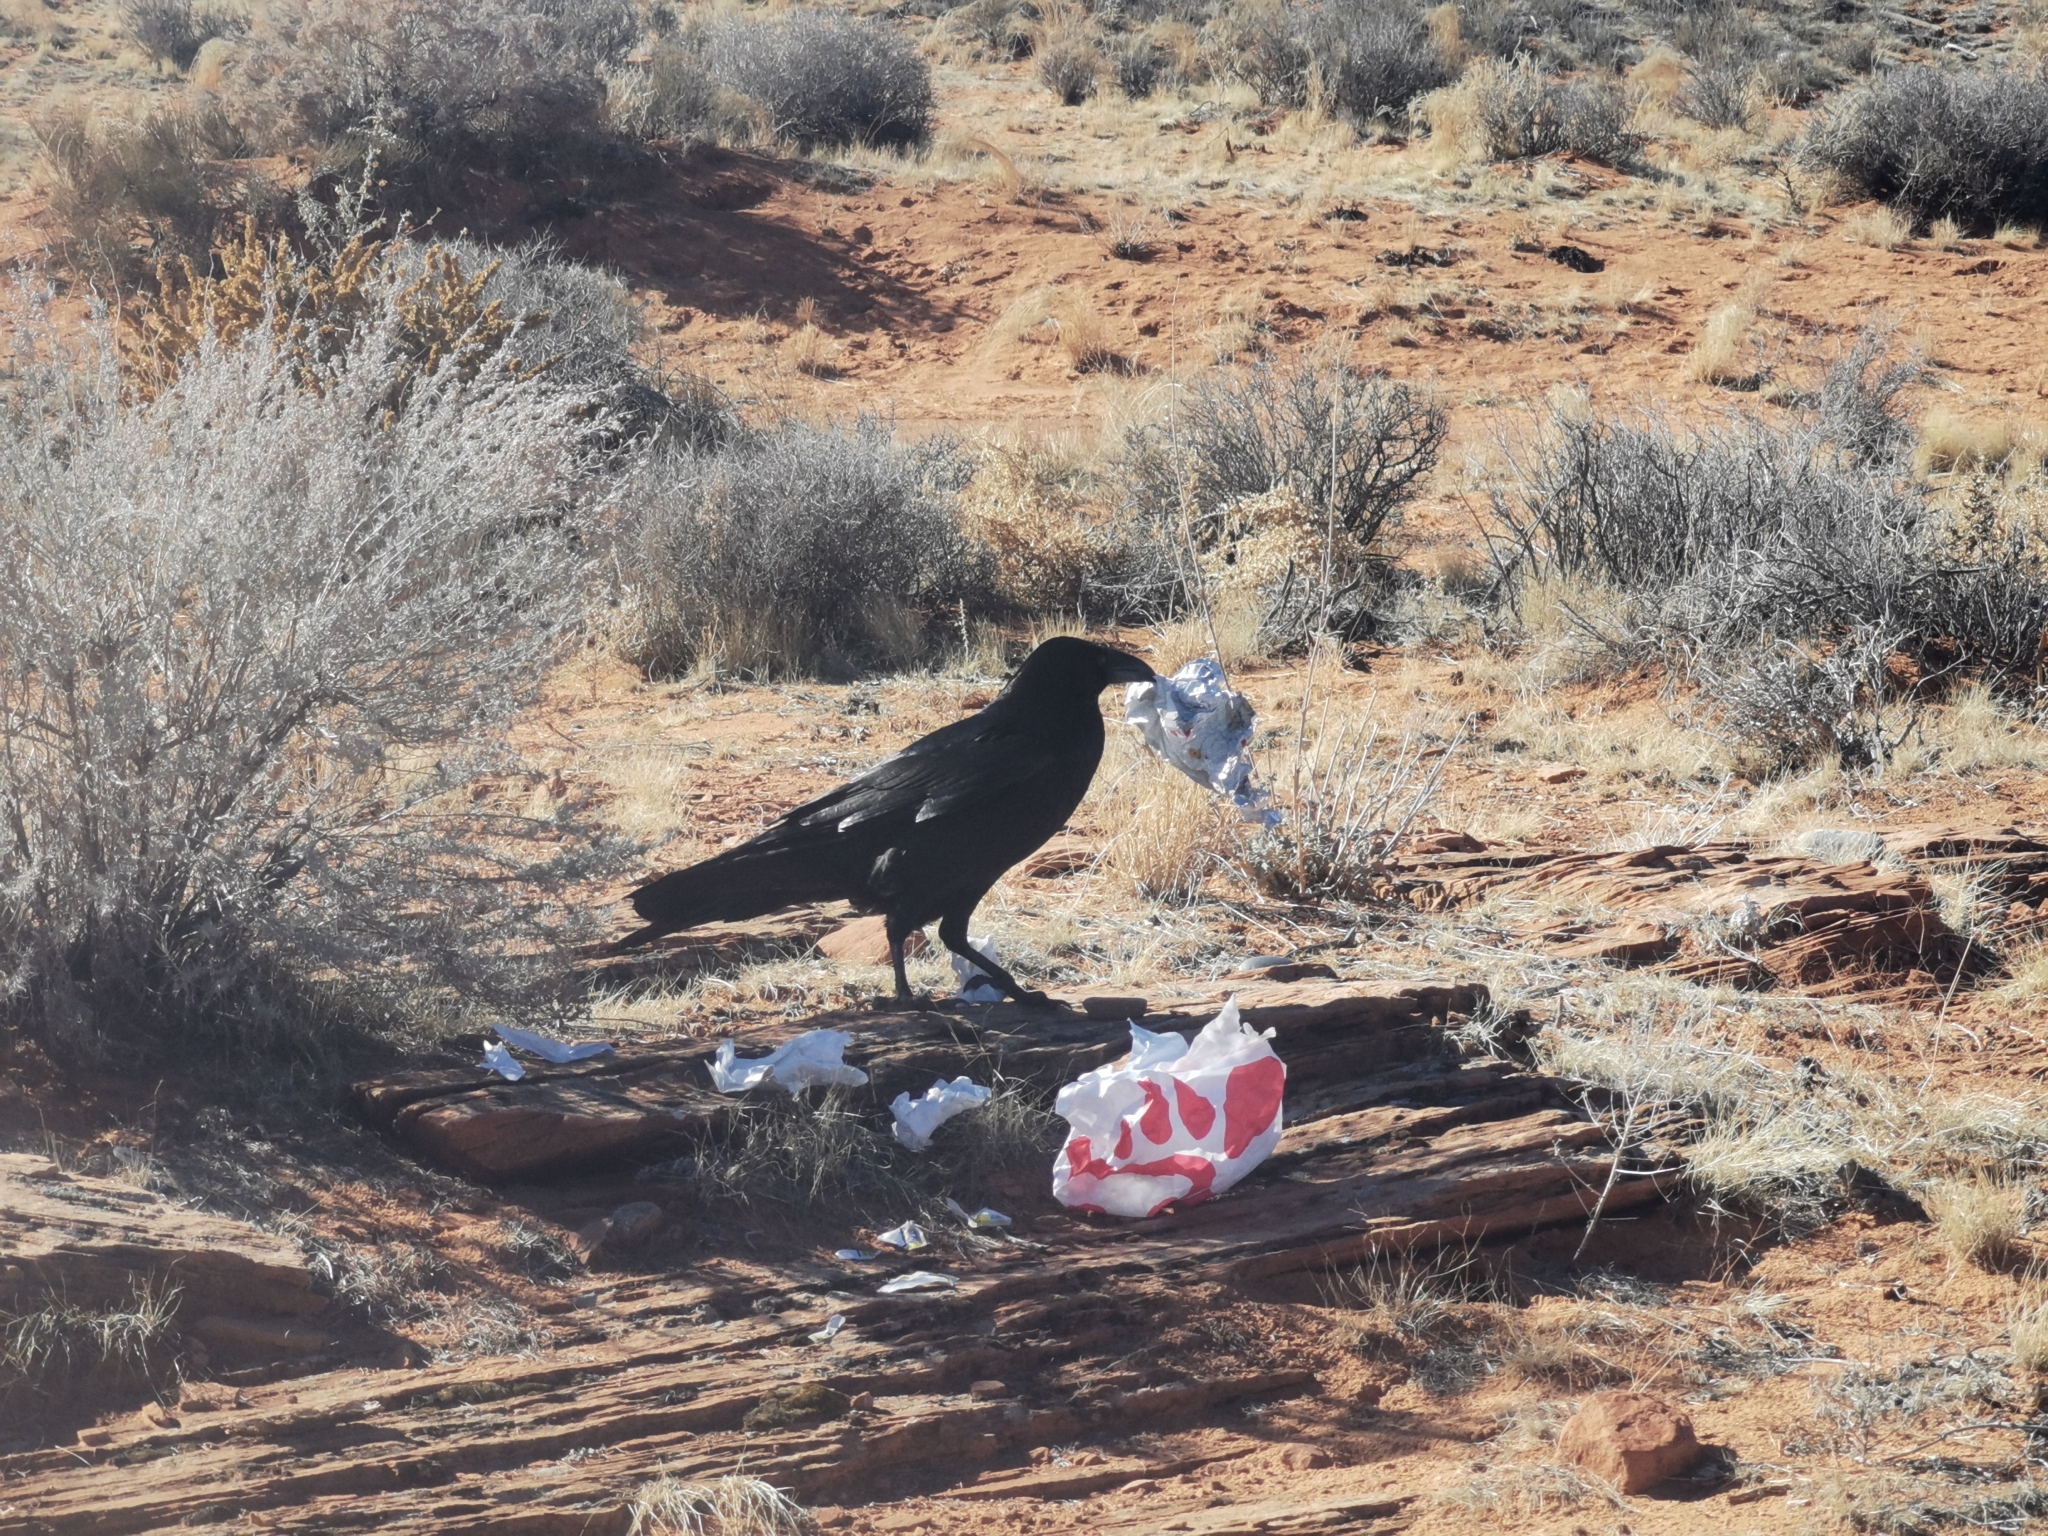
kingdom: Animalia
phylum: Chordata
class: Aves
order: Passeriformes
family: Corvidae
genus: Corvus
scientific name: Corvus corax
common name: Common raven
